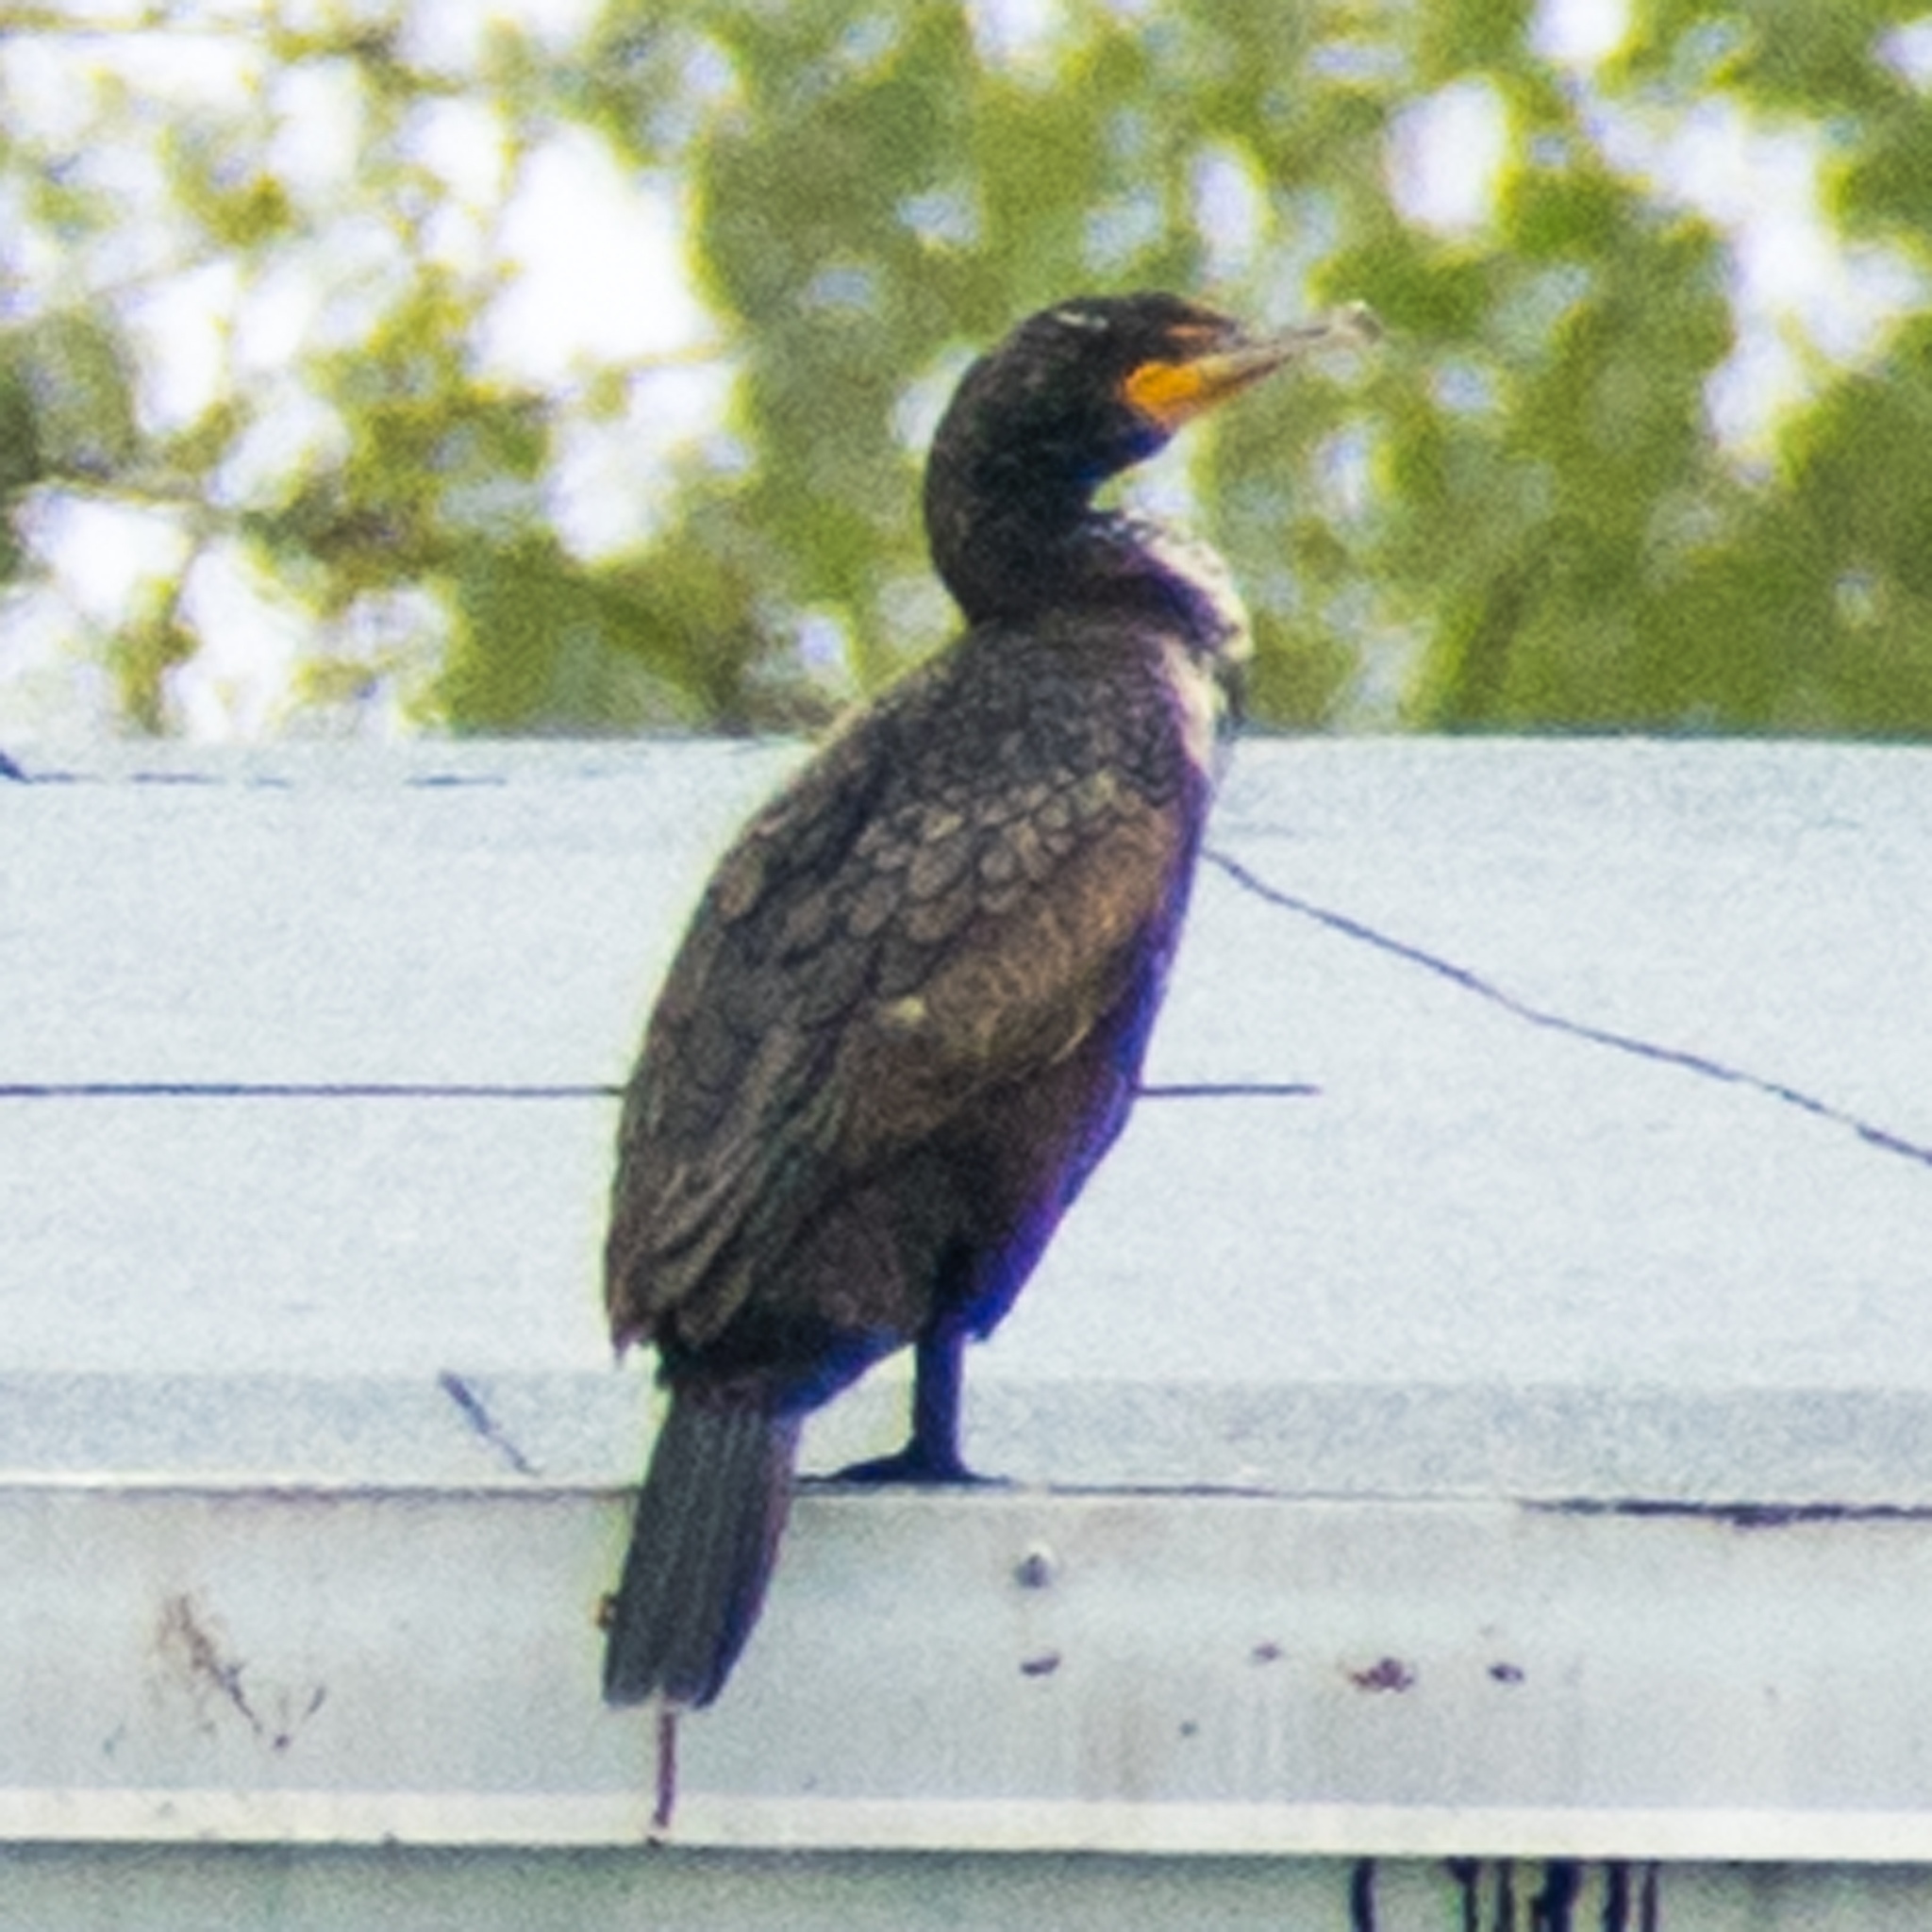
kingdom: Animalia
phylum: Chordata
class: Aves
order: Suliformes
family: Phalacrocoracidae
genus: Phalacrocorax
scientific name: Phalacrocorax auritus
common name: Double-crested cormorant
